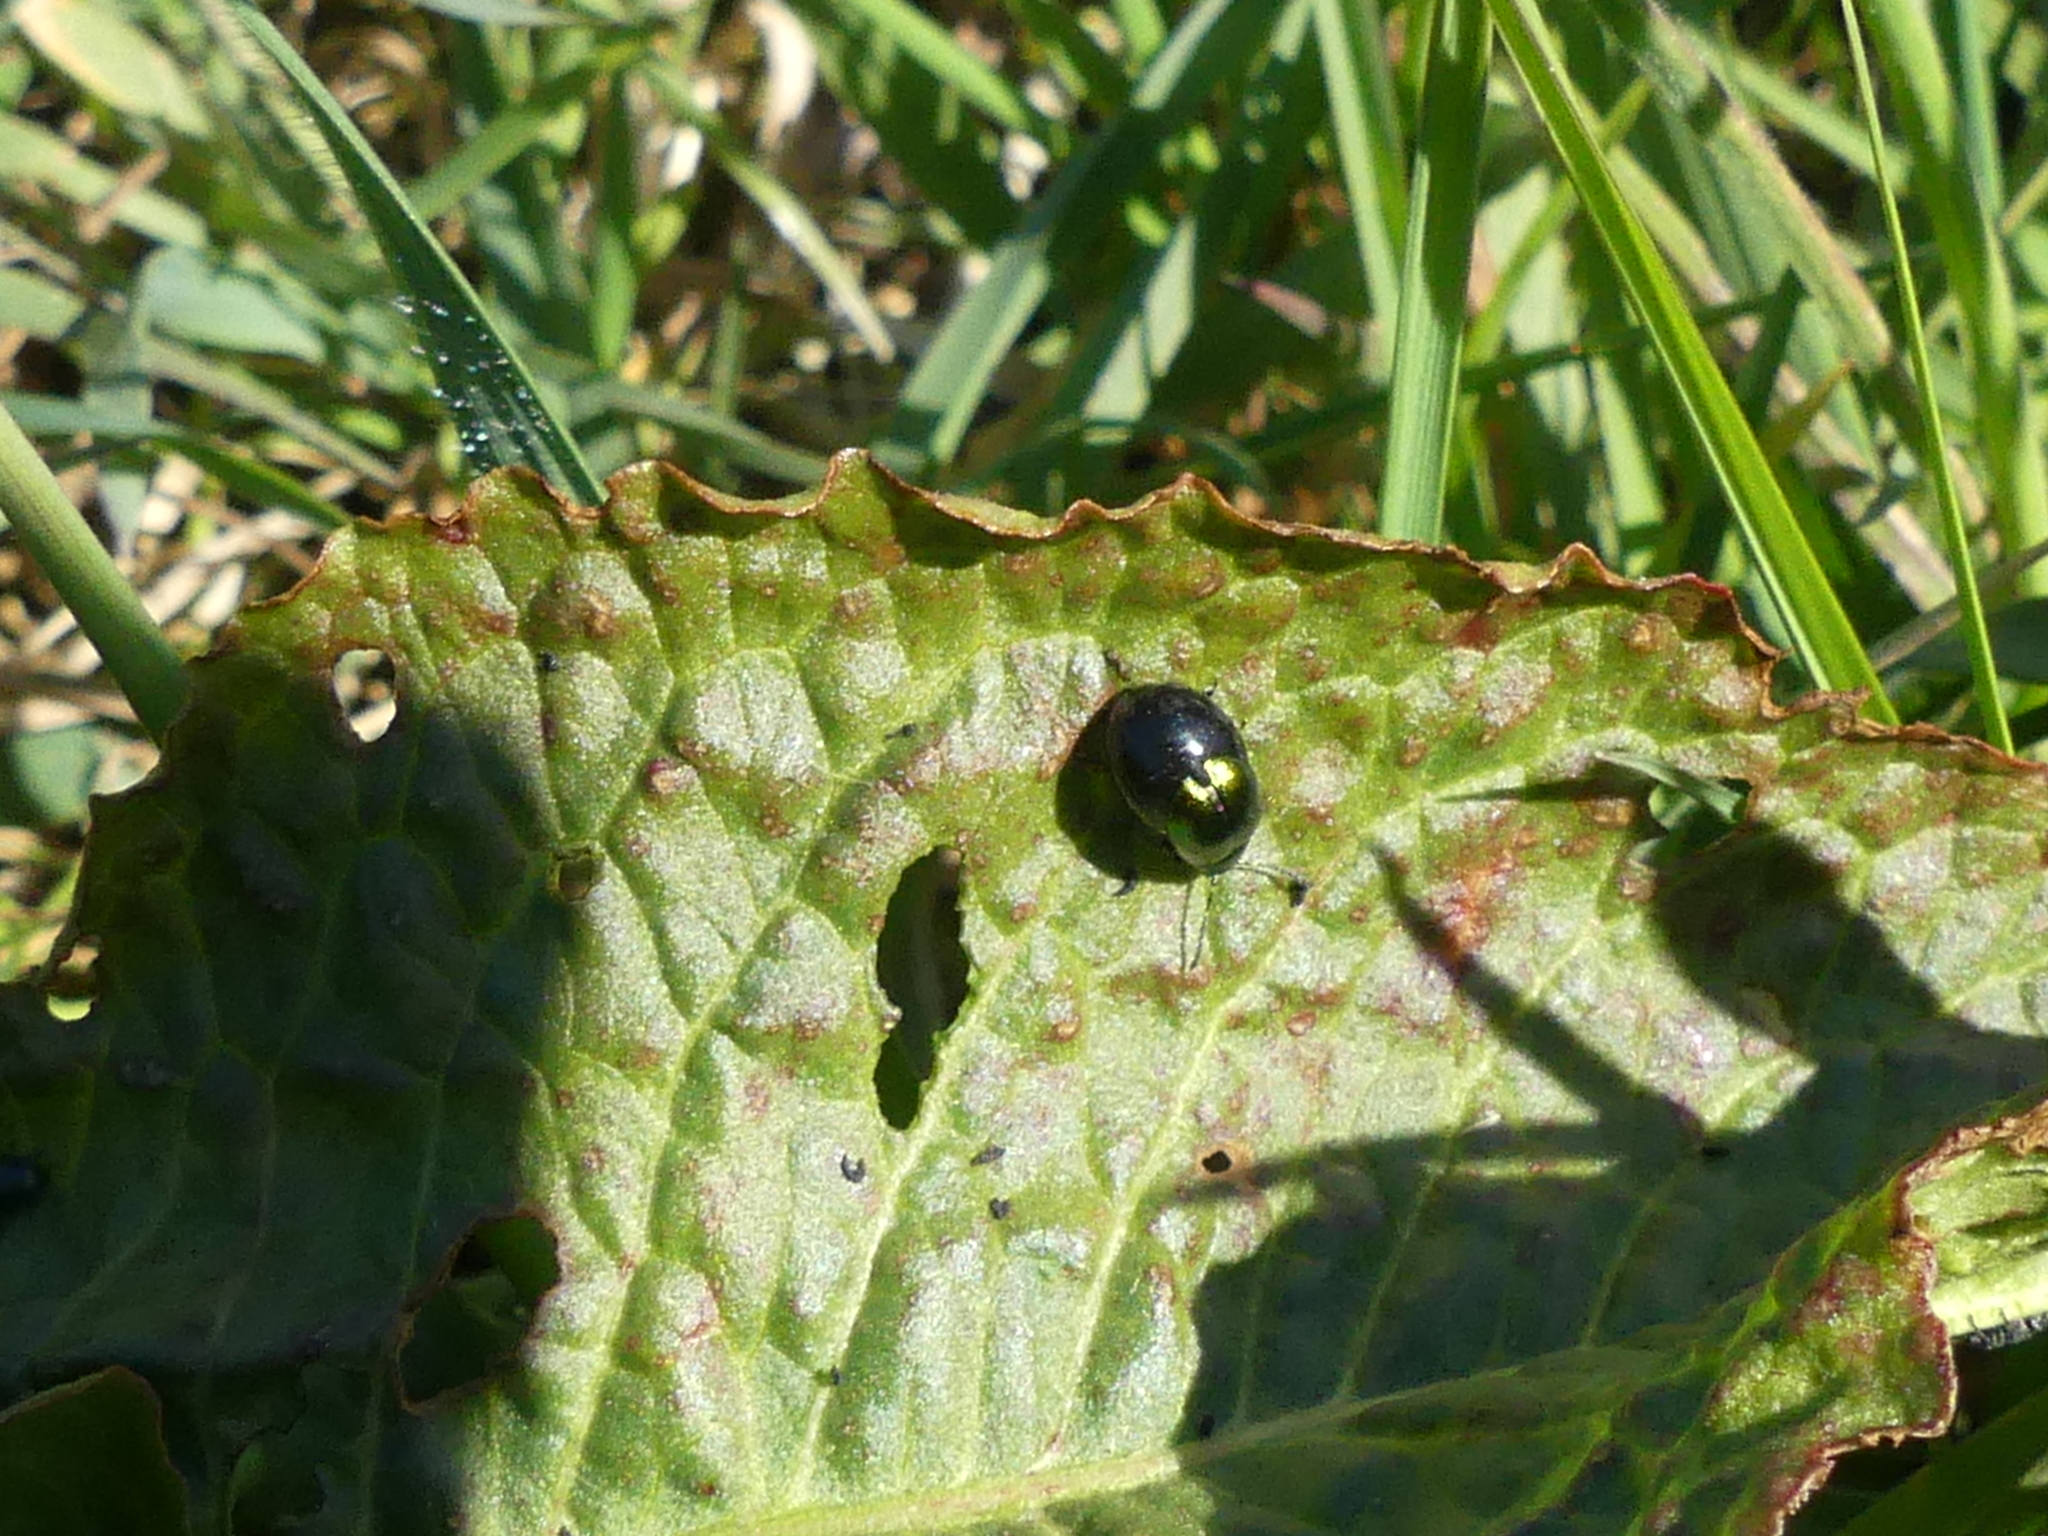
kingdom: Animalia
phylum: Arthropoda
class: Insecta
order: Coleoptera
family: Chrysomelidae
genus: Gastrophysa
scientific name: Gastrophysa viridula
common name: Green dock beetle
